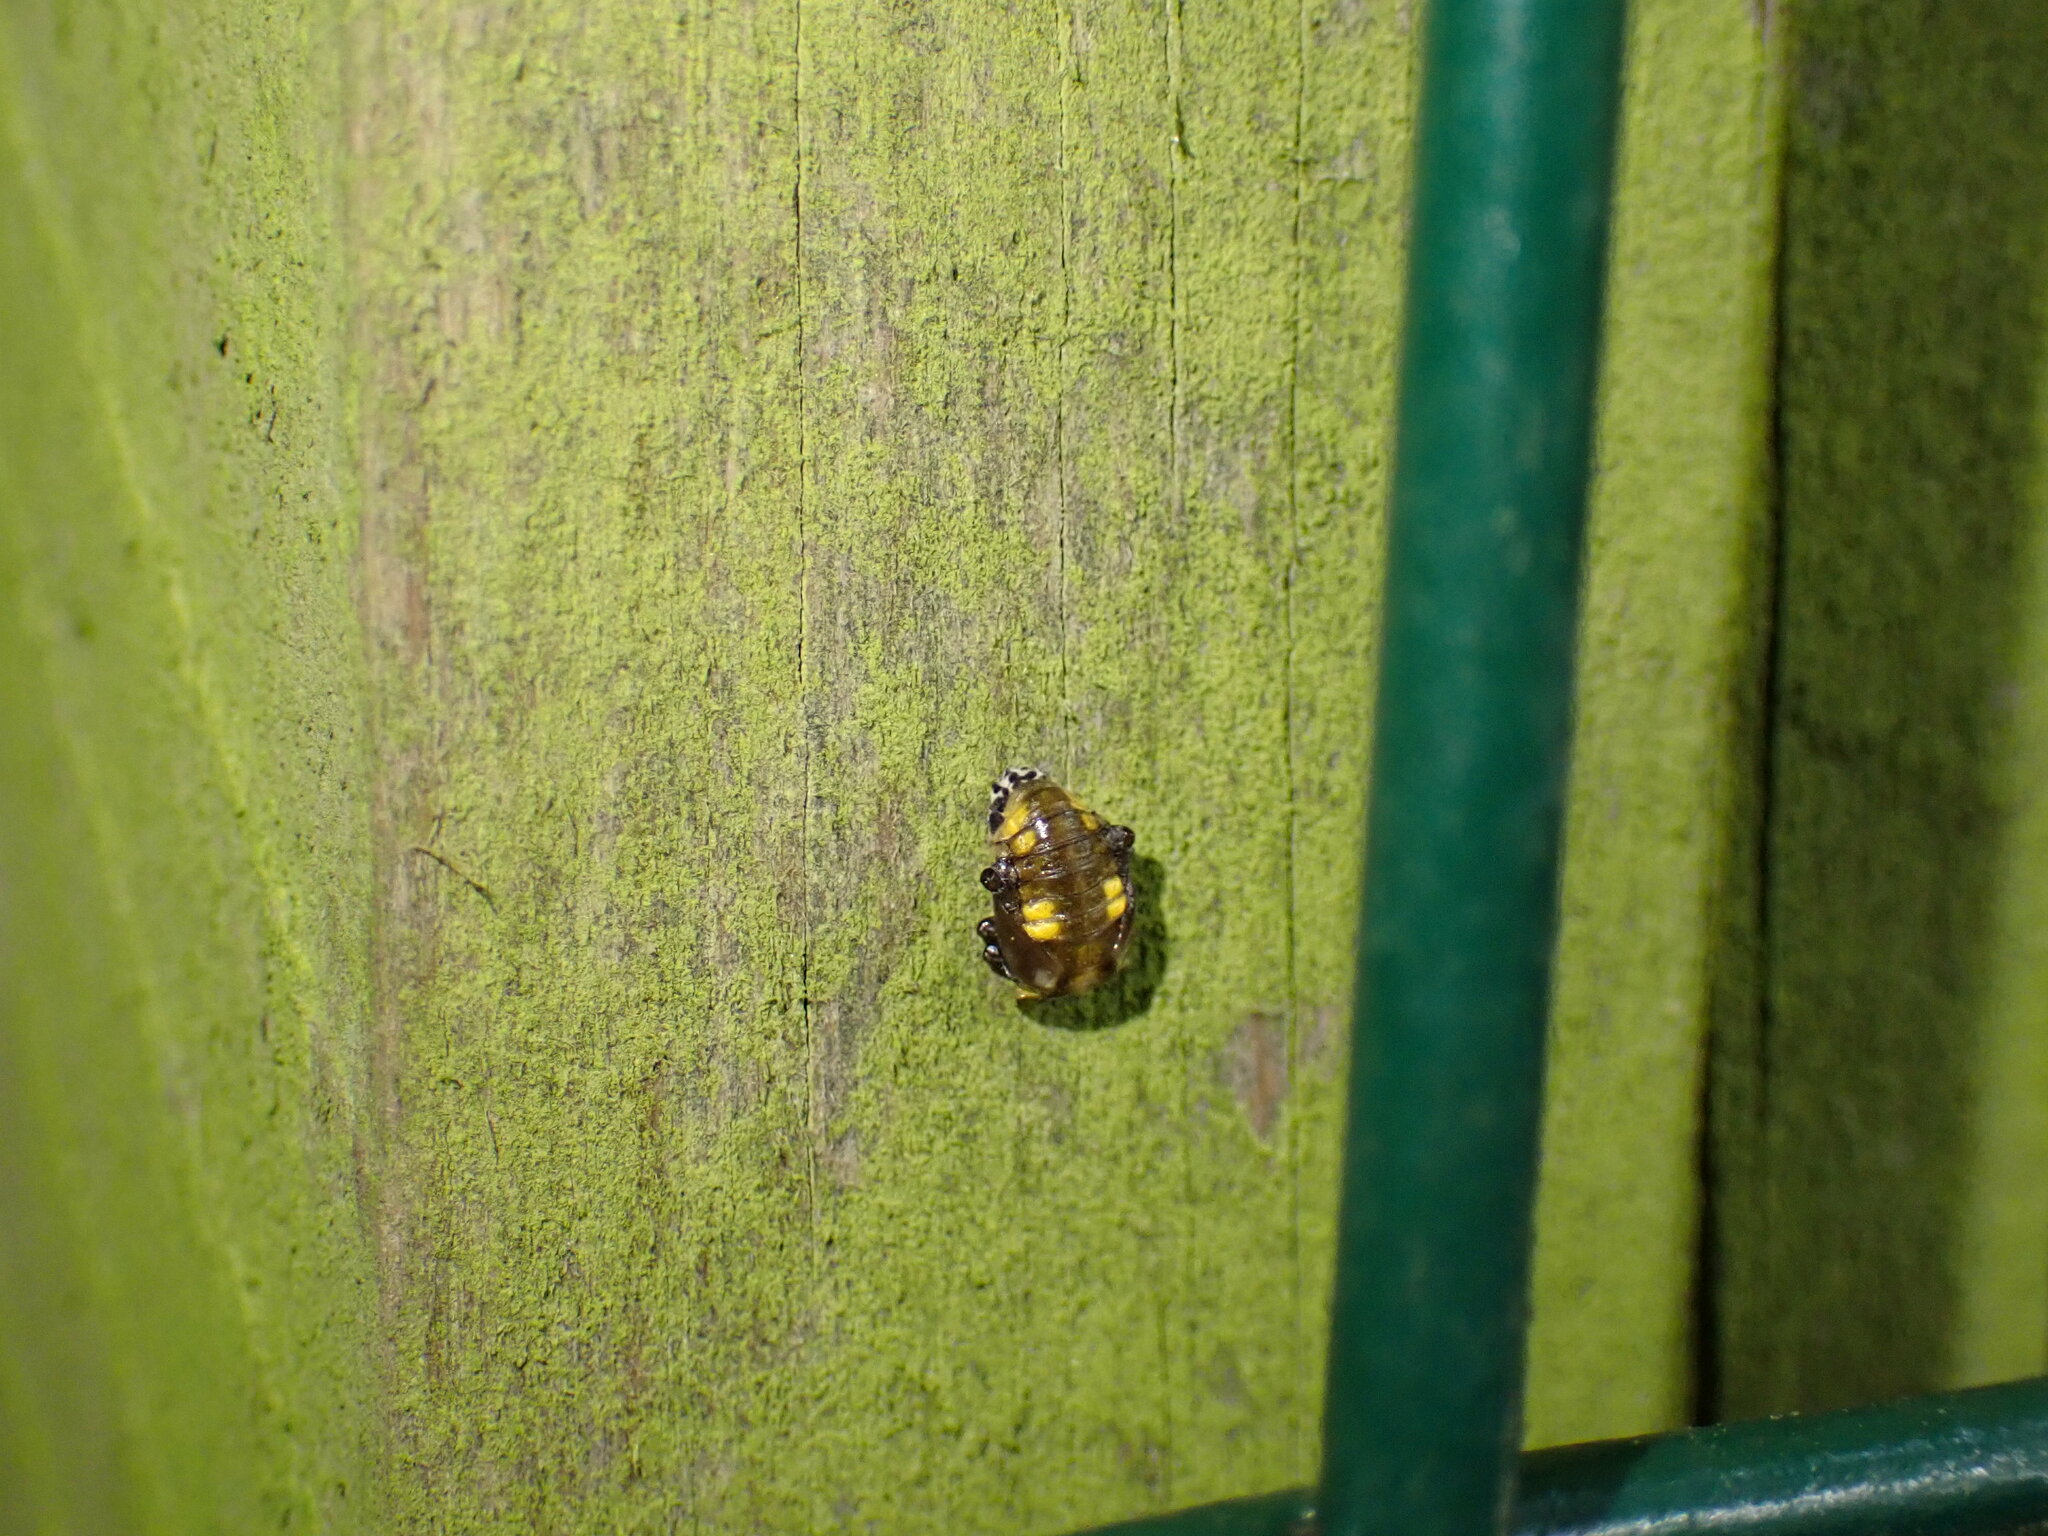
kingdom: Animalia
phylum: Arthropoda
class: Insecta
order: Coleoptera
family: Coccinellidae
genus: Halyzia
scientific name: Halyzia sedecimguttata
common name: Orange ladybird
